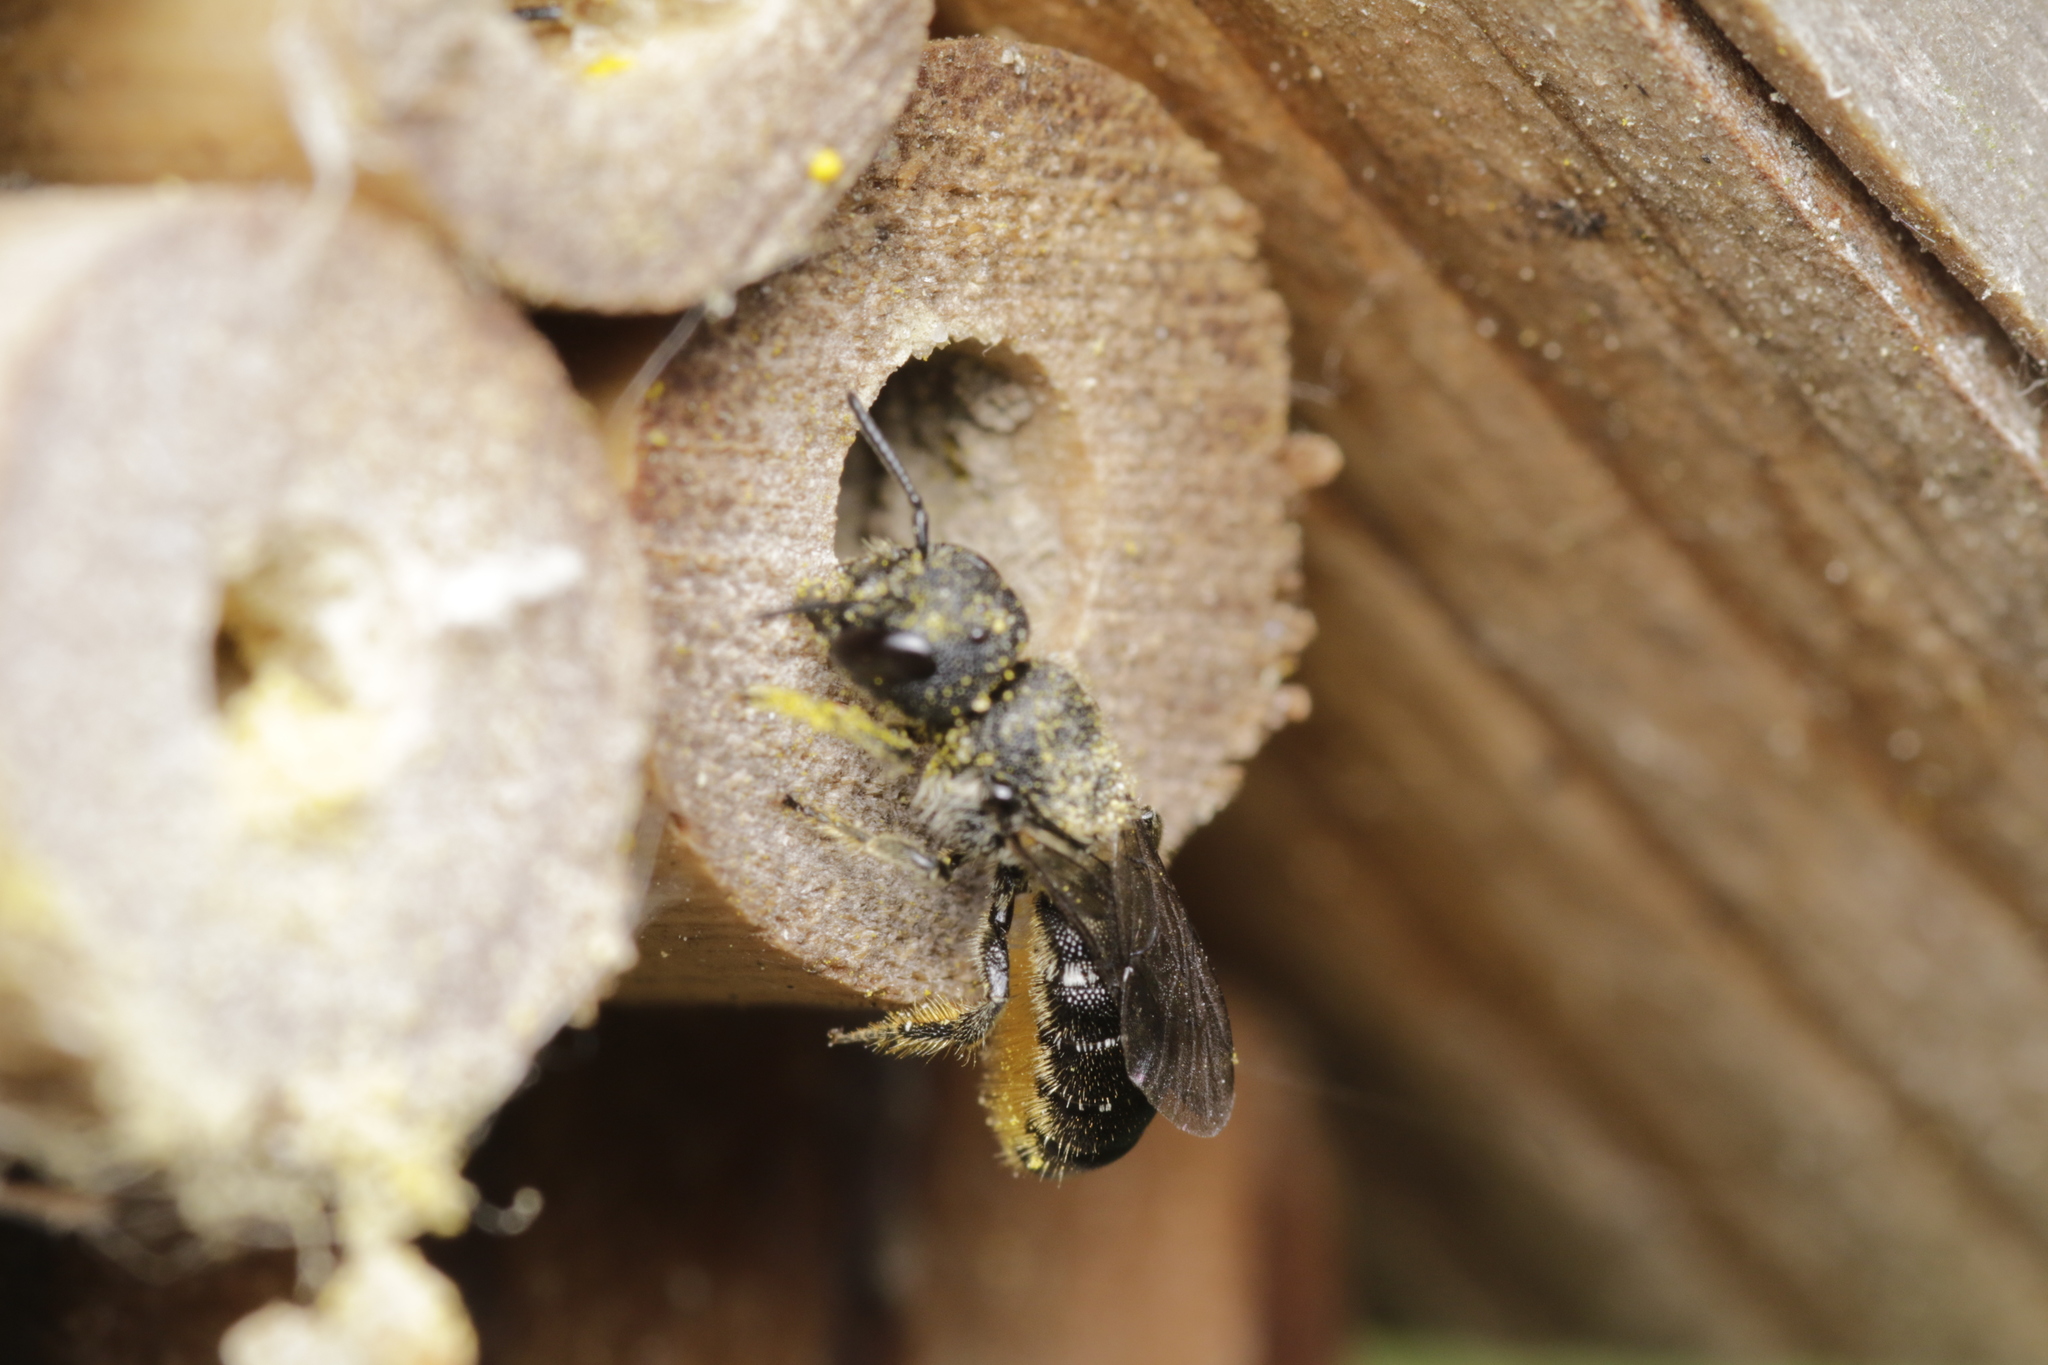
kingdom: Animalia
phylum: Arthropoda
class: Insecta
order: Hymenoptera
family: Megachilidae
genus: Heriades
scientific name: Heriades truncorum
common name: Ridge-saddled carpenter bee
